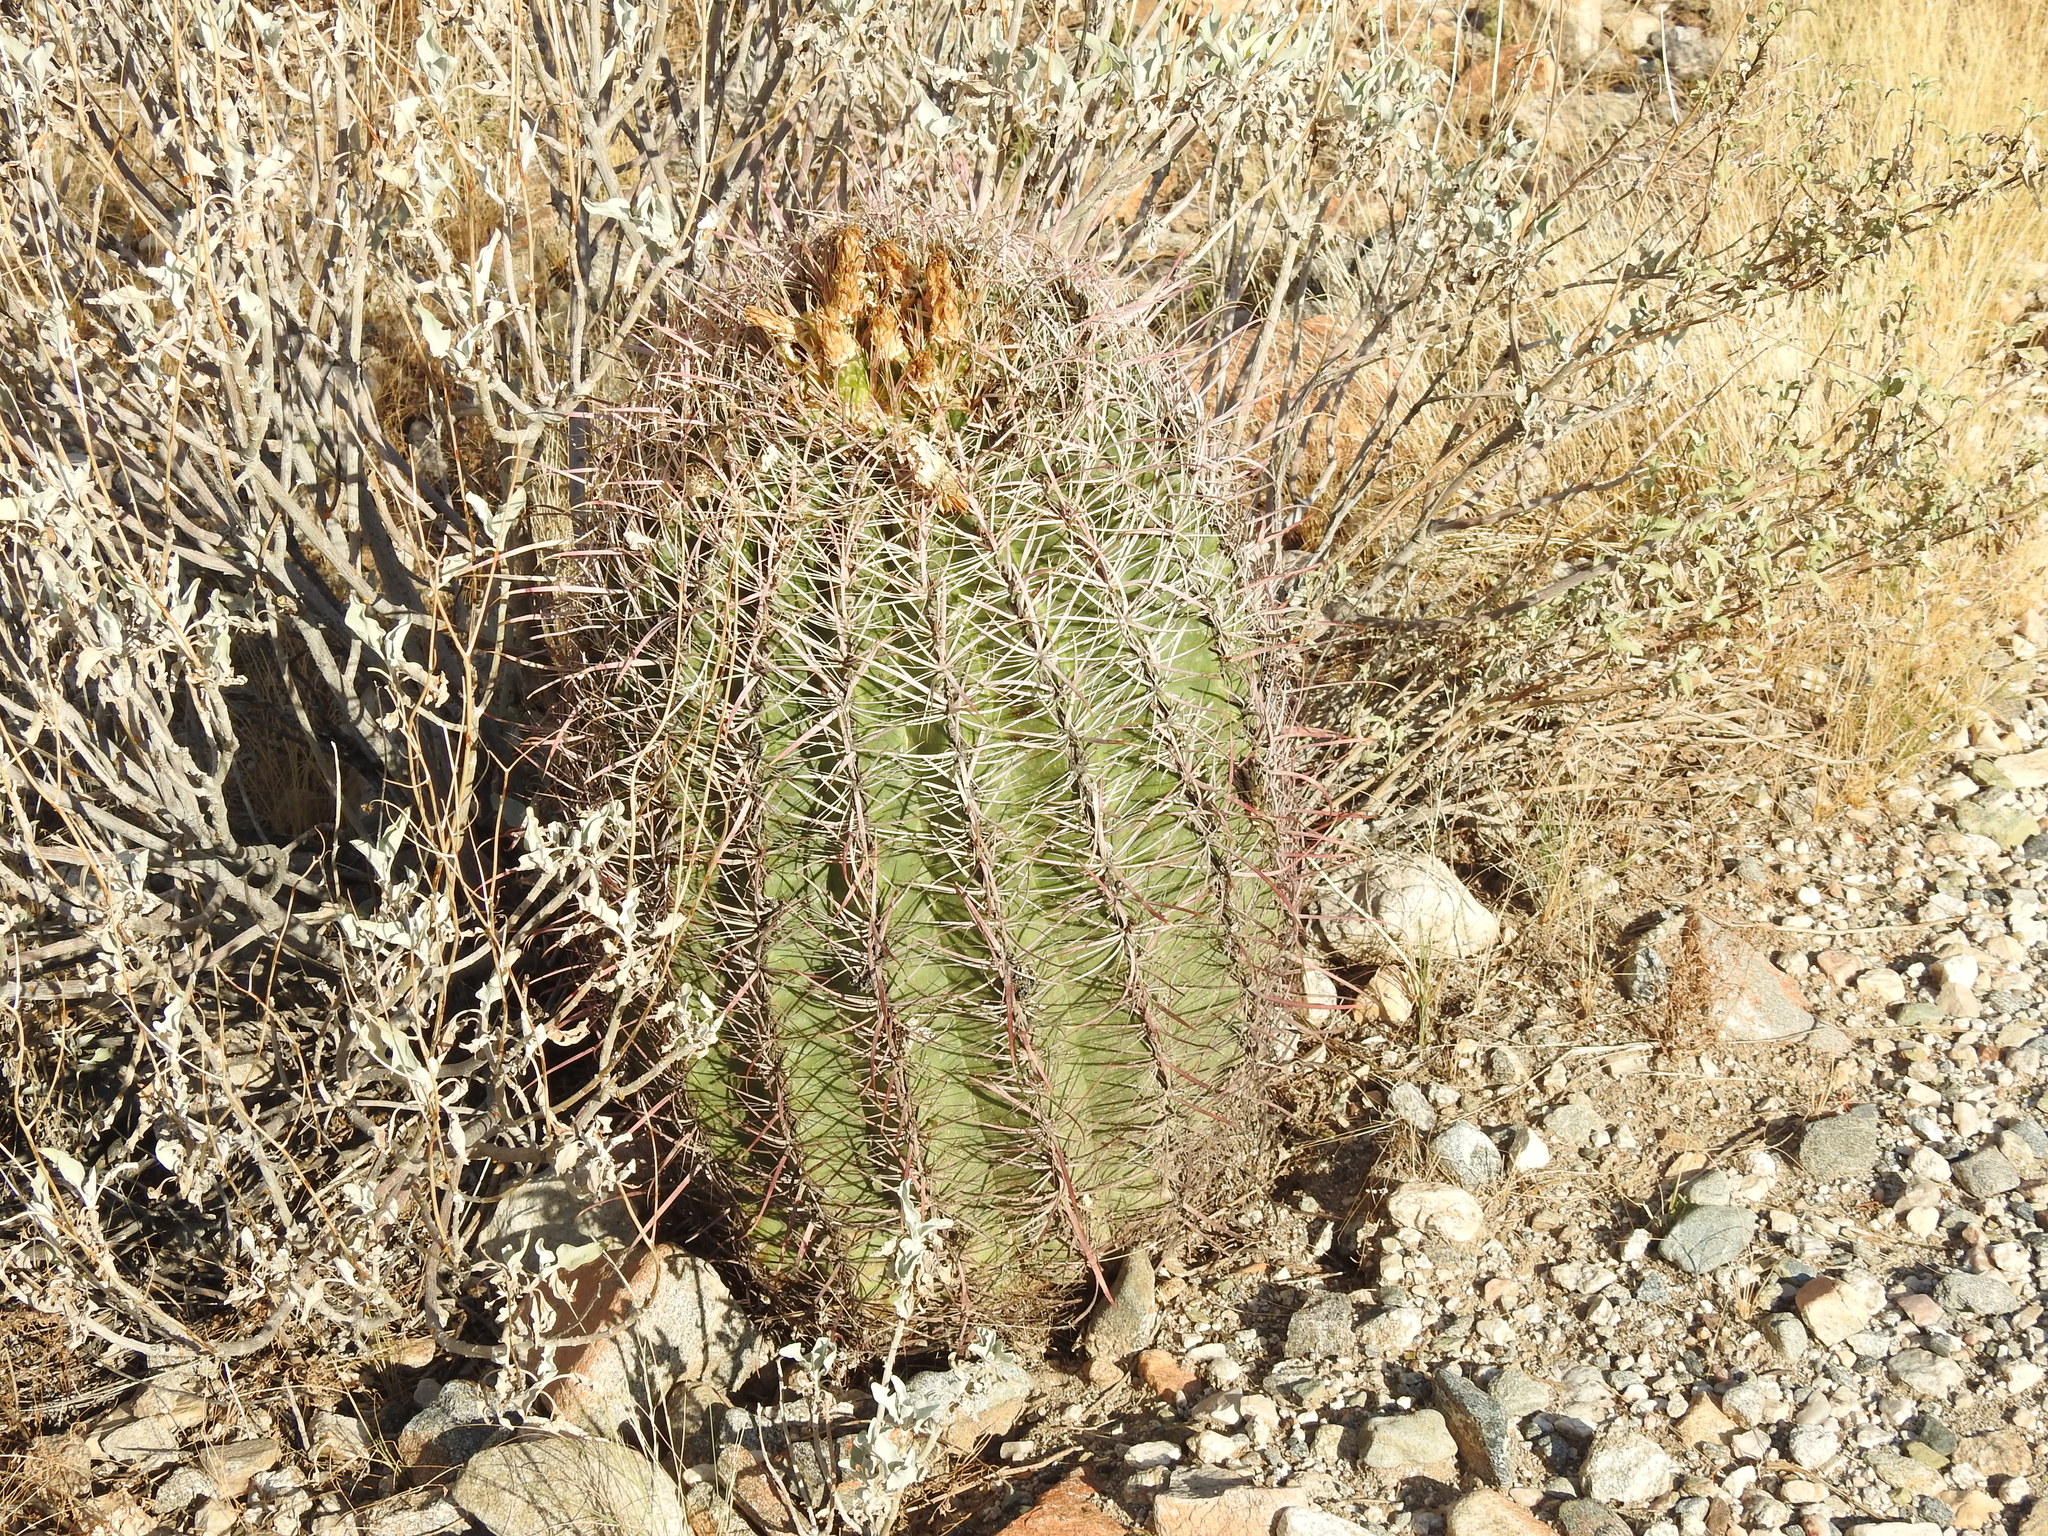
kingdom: Plantae
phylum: Tracheophyta
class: Magnoliopsida
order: Caryophyllales
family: Cactaceae
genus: Ferocactus
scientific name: Ferocactus cylindraceus
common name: California barrel cactus
